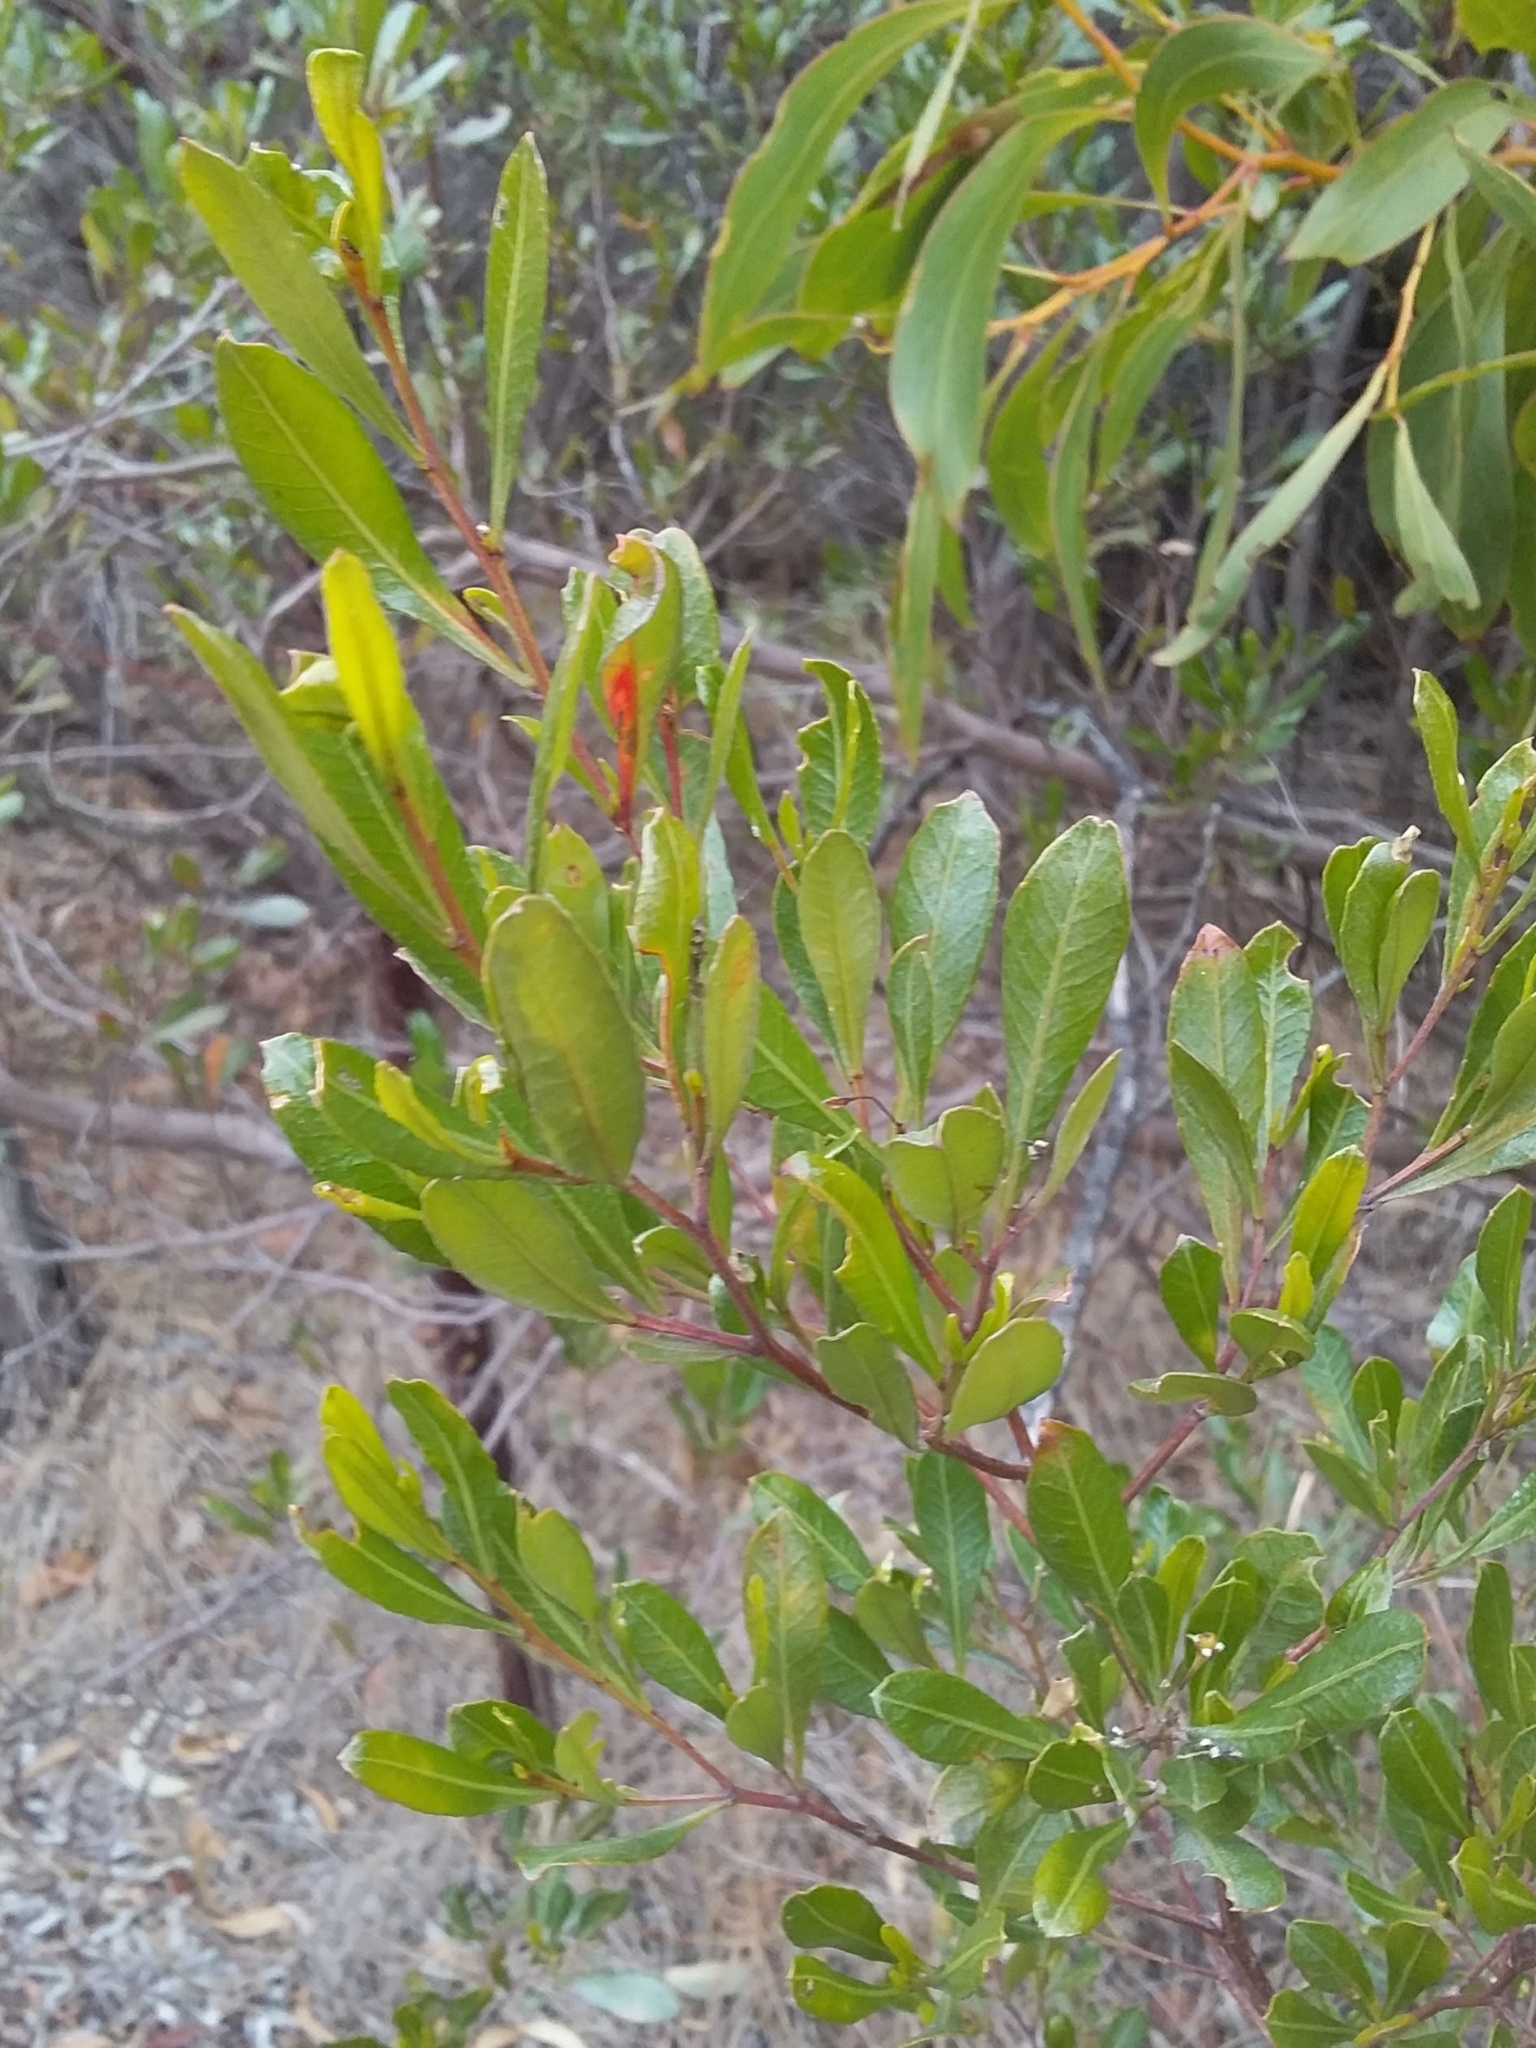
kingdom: Plantae
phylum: Tracheophyta
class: Magnoliopsida
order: Sapindales
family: Sapindaceae
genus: Dodonaea
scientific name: Dodonaea viscosa
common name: Hopbush
